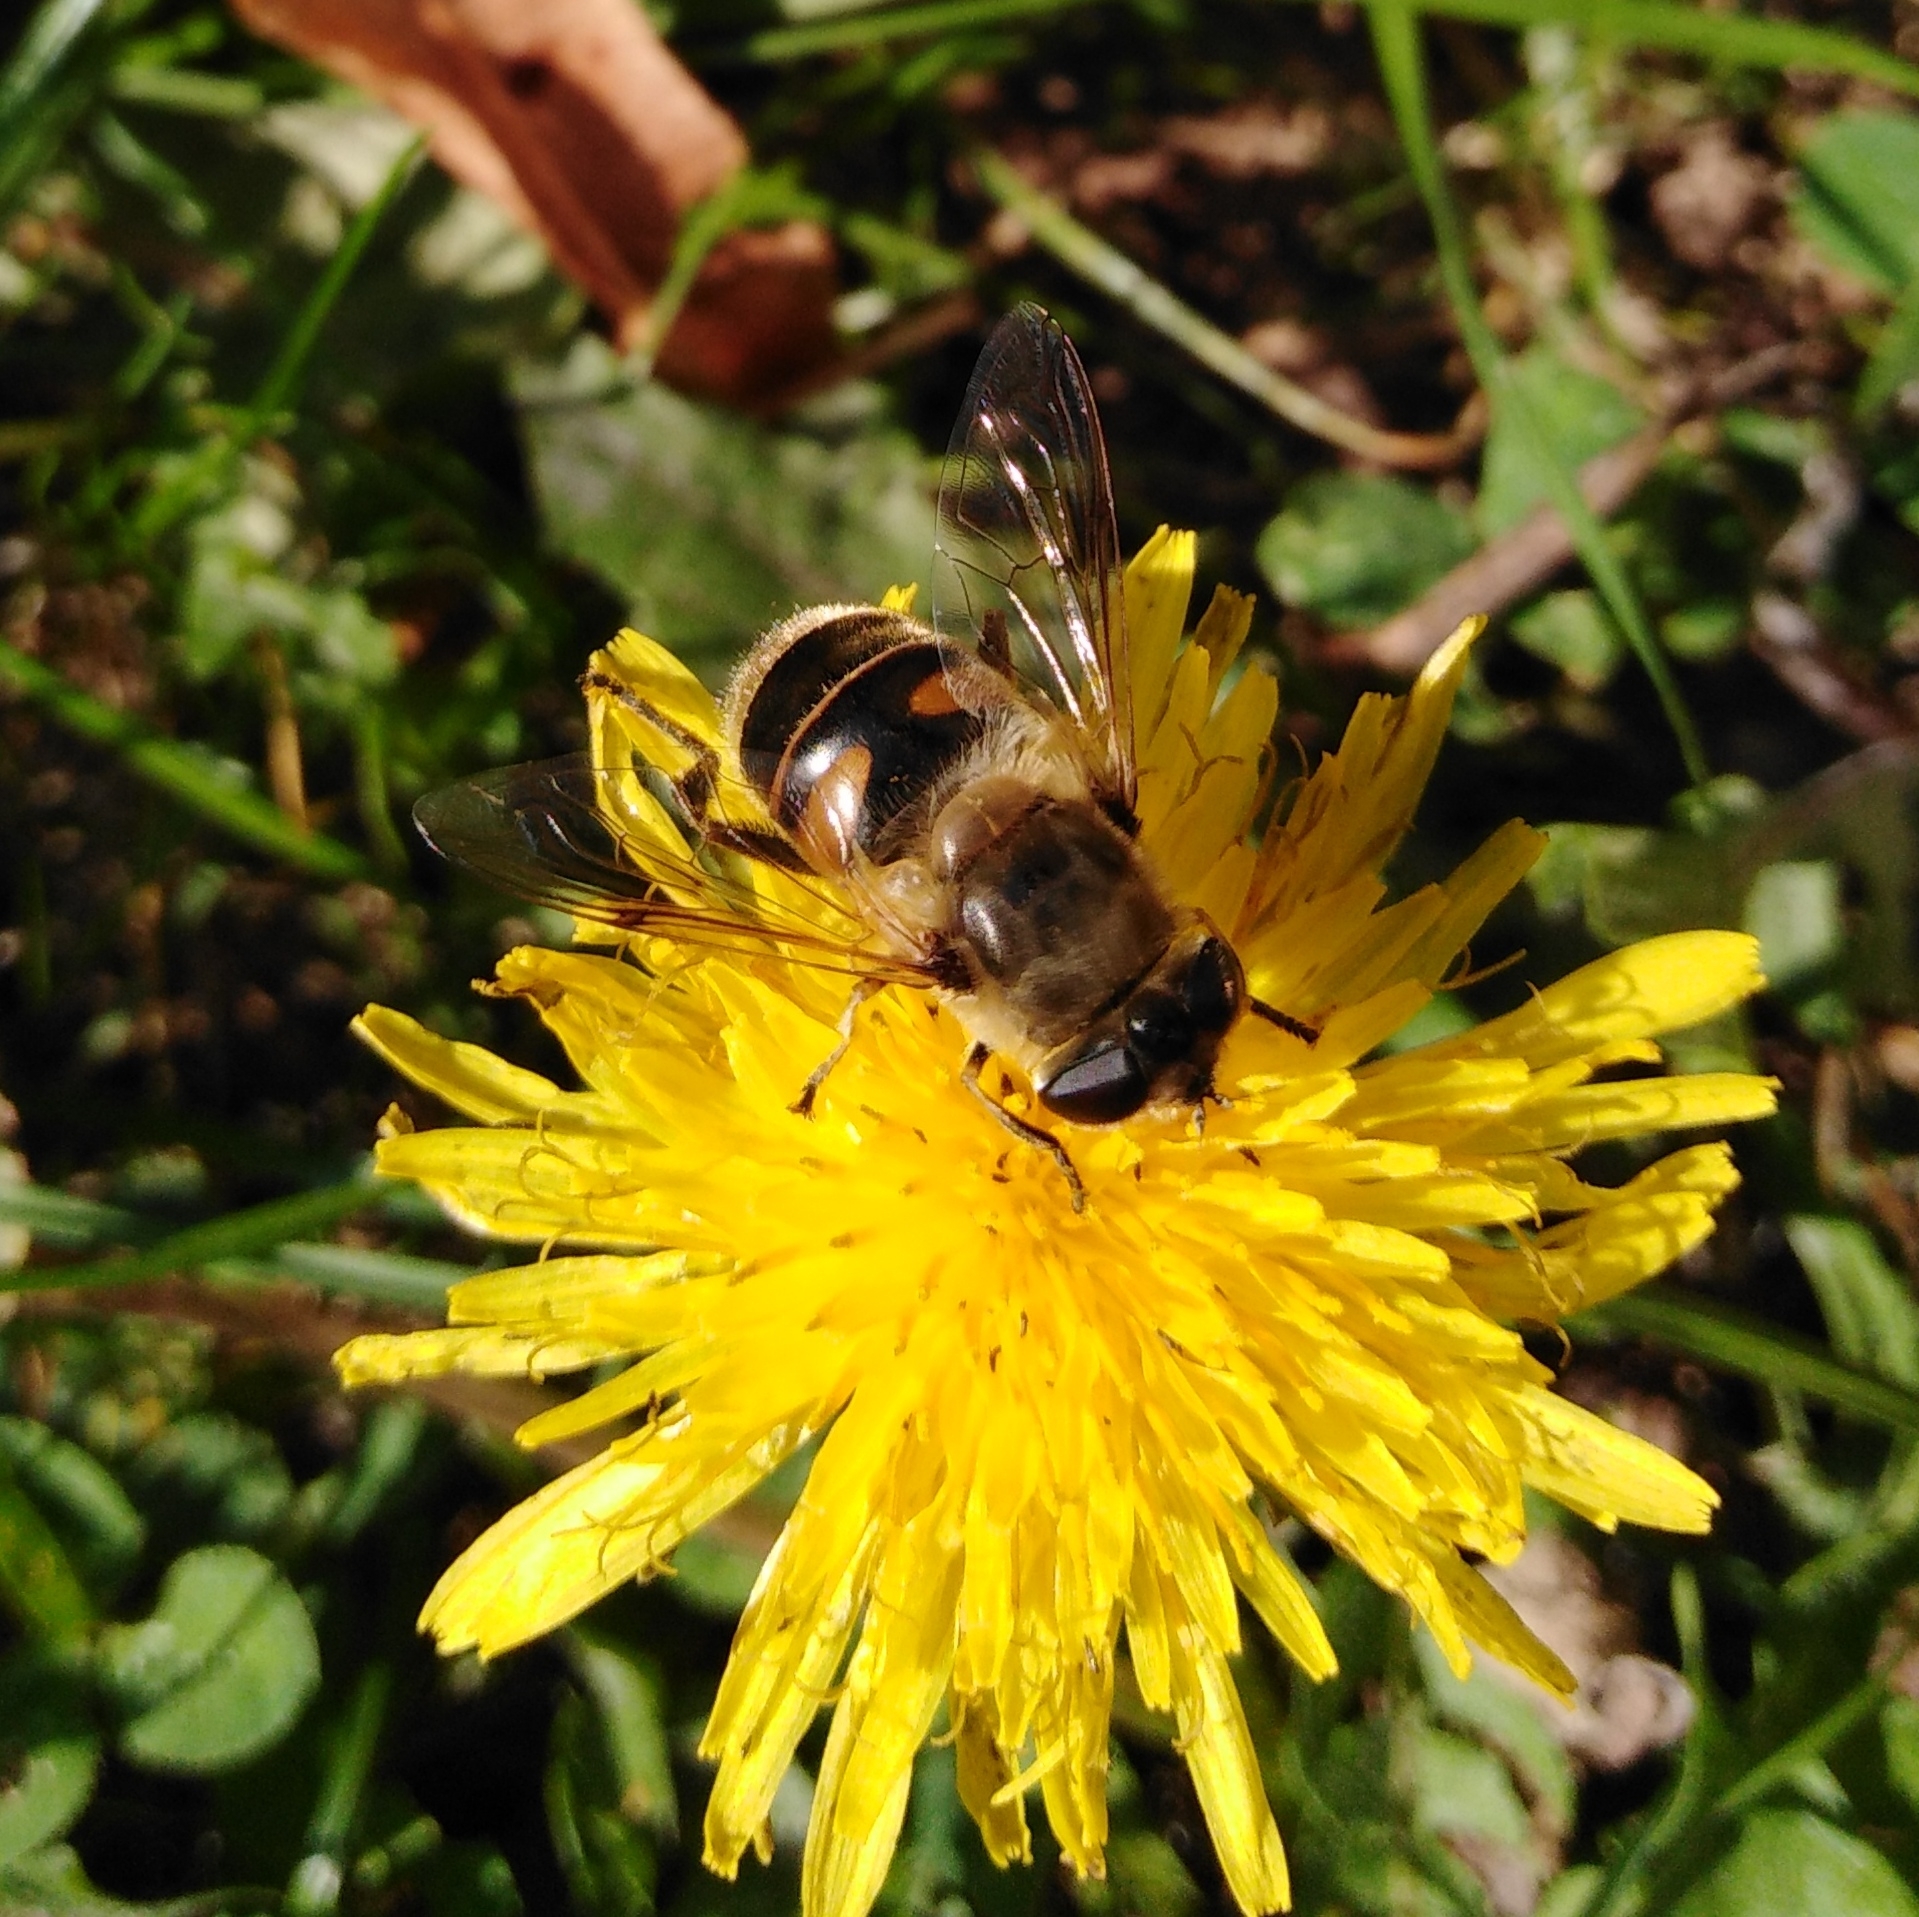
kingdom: Animalia
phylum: Arthropoda
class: Insecta
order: Diptera
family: Syrphidae
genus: Eristalis
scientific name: Eristalis tenax
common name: Drone fly
